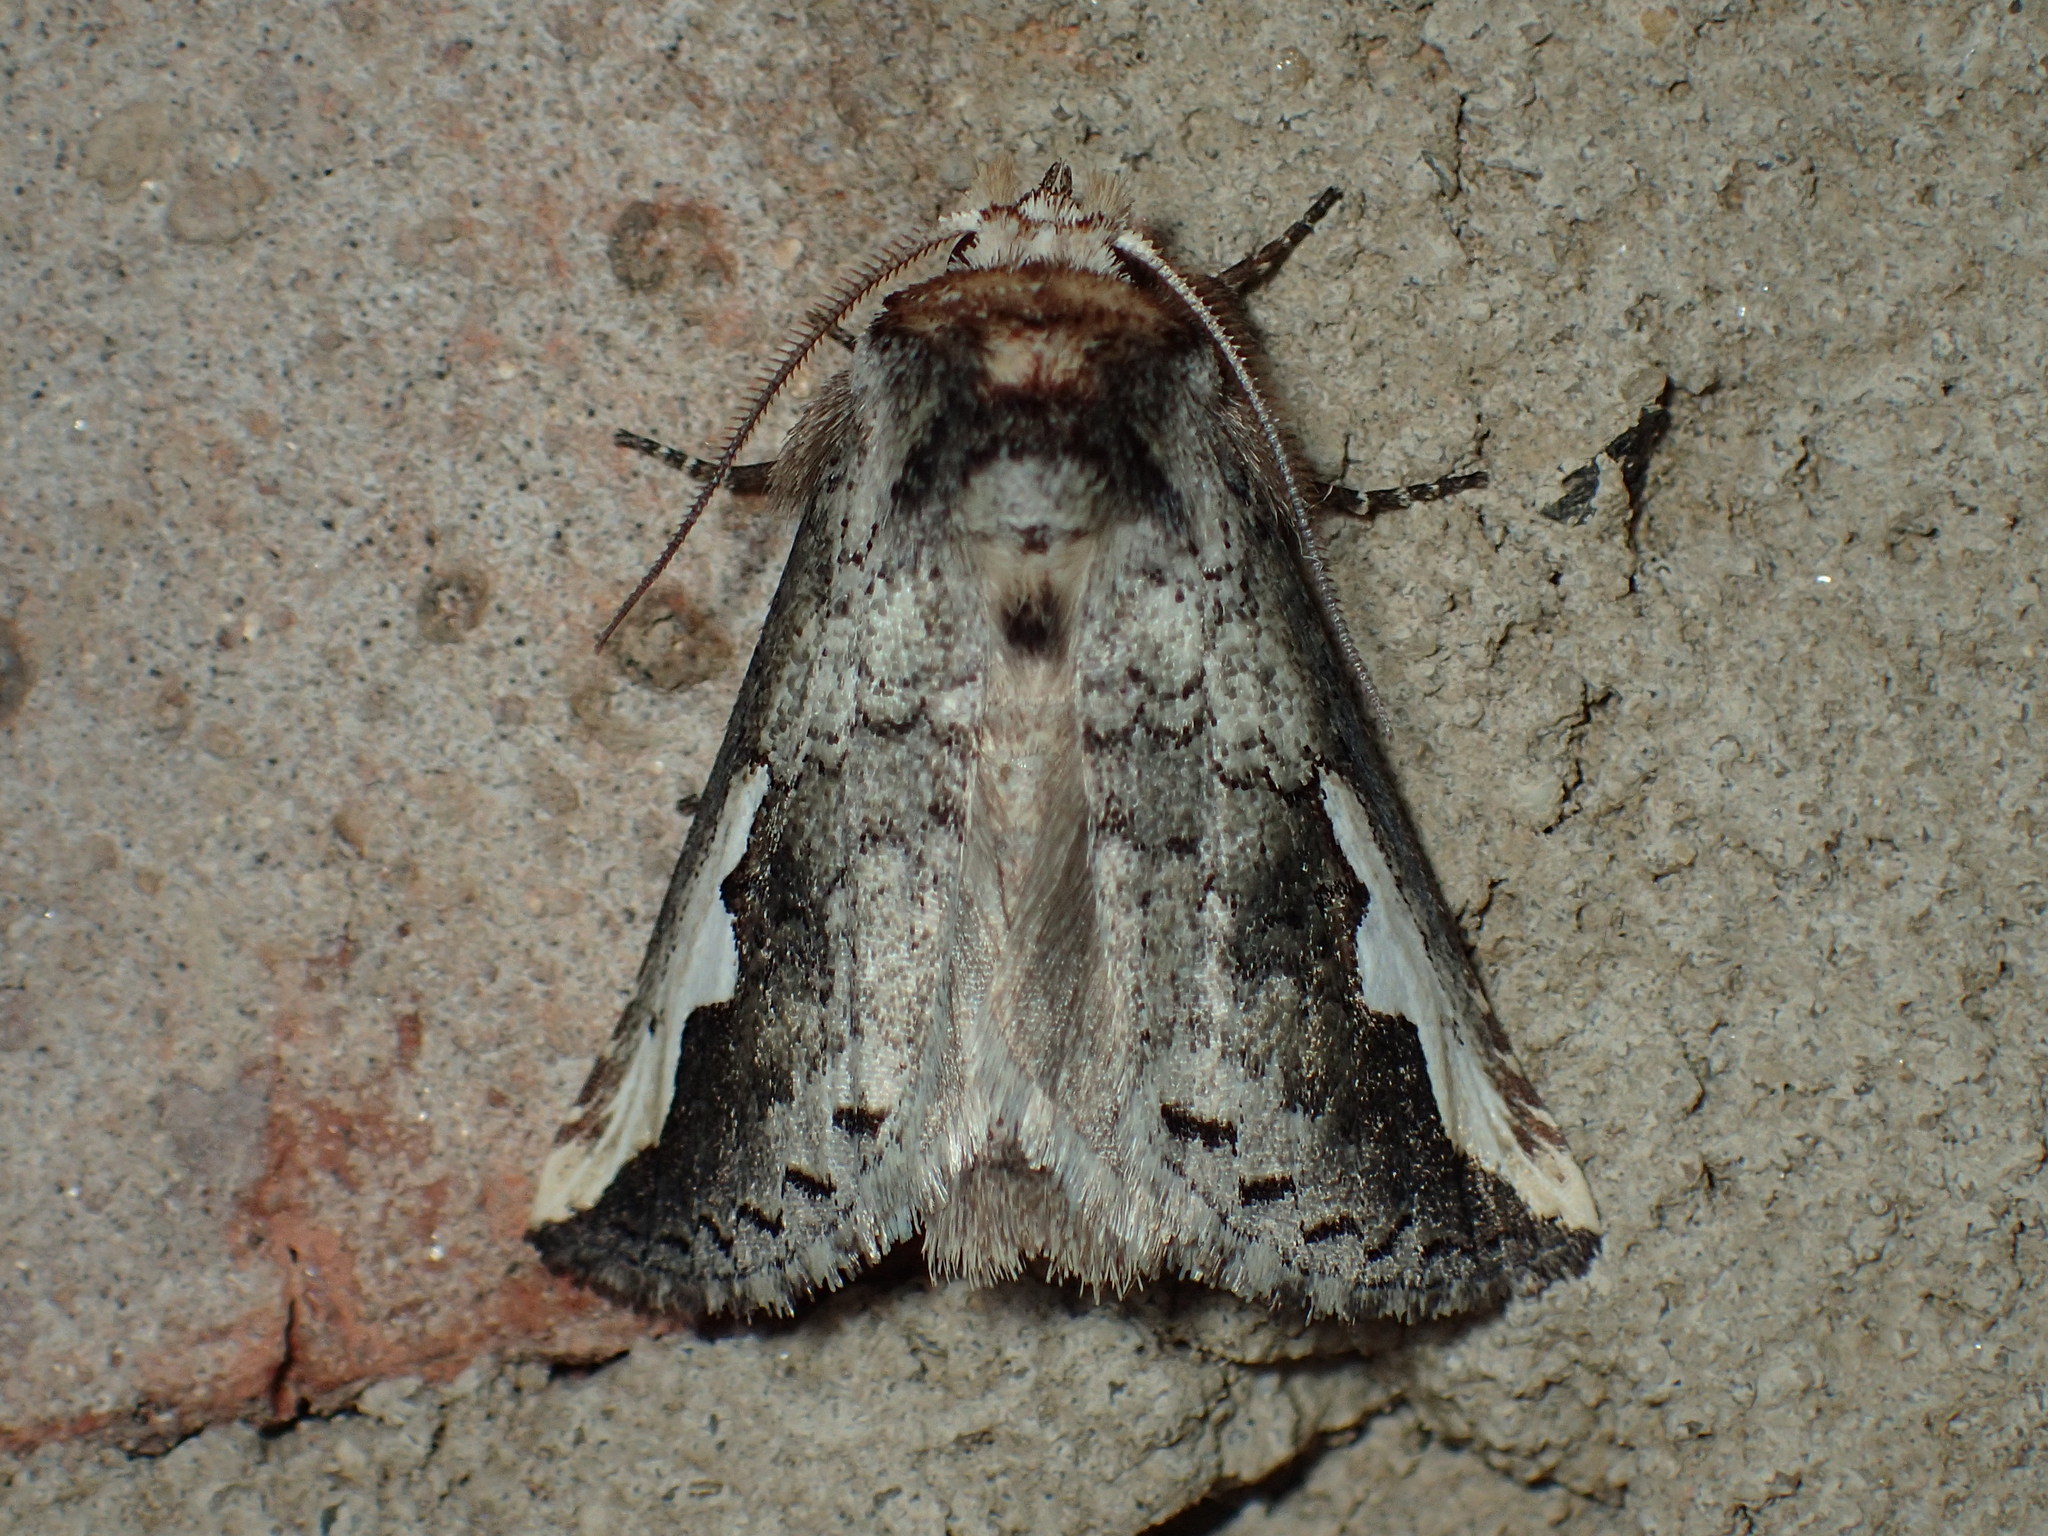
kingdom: Animalia
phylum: Arthropoda
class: Insecta
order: Lepidoptera
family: Notodontidae
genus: Symmerista
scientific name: Symmerista
